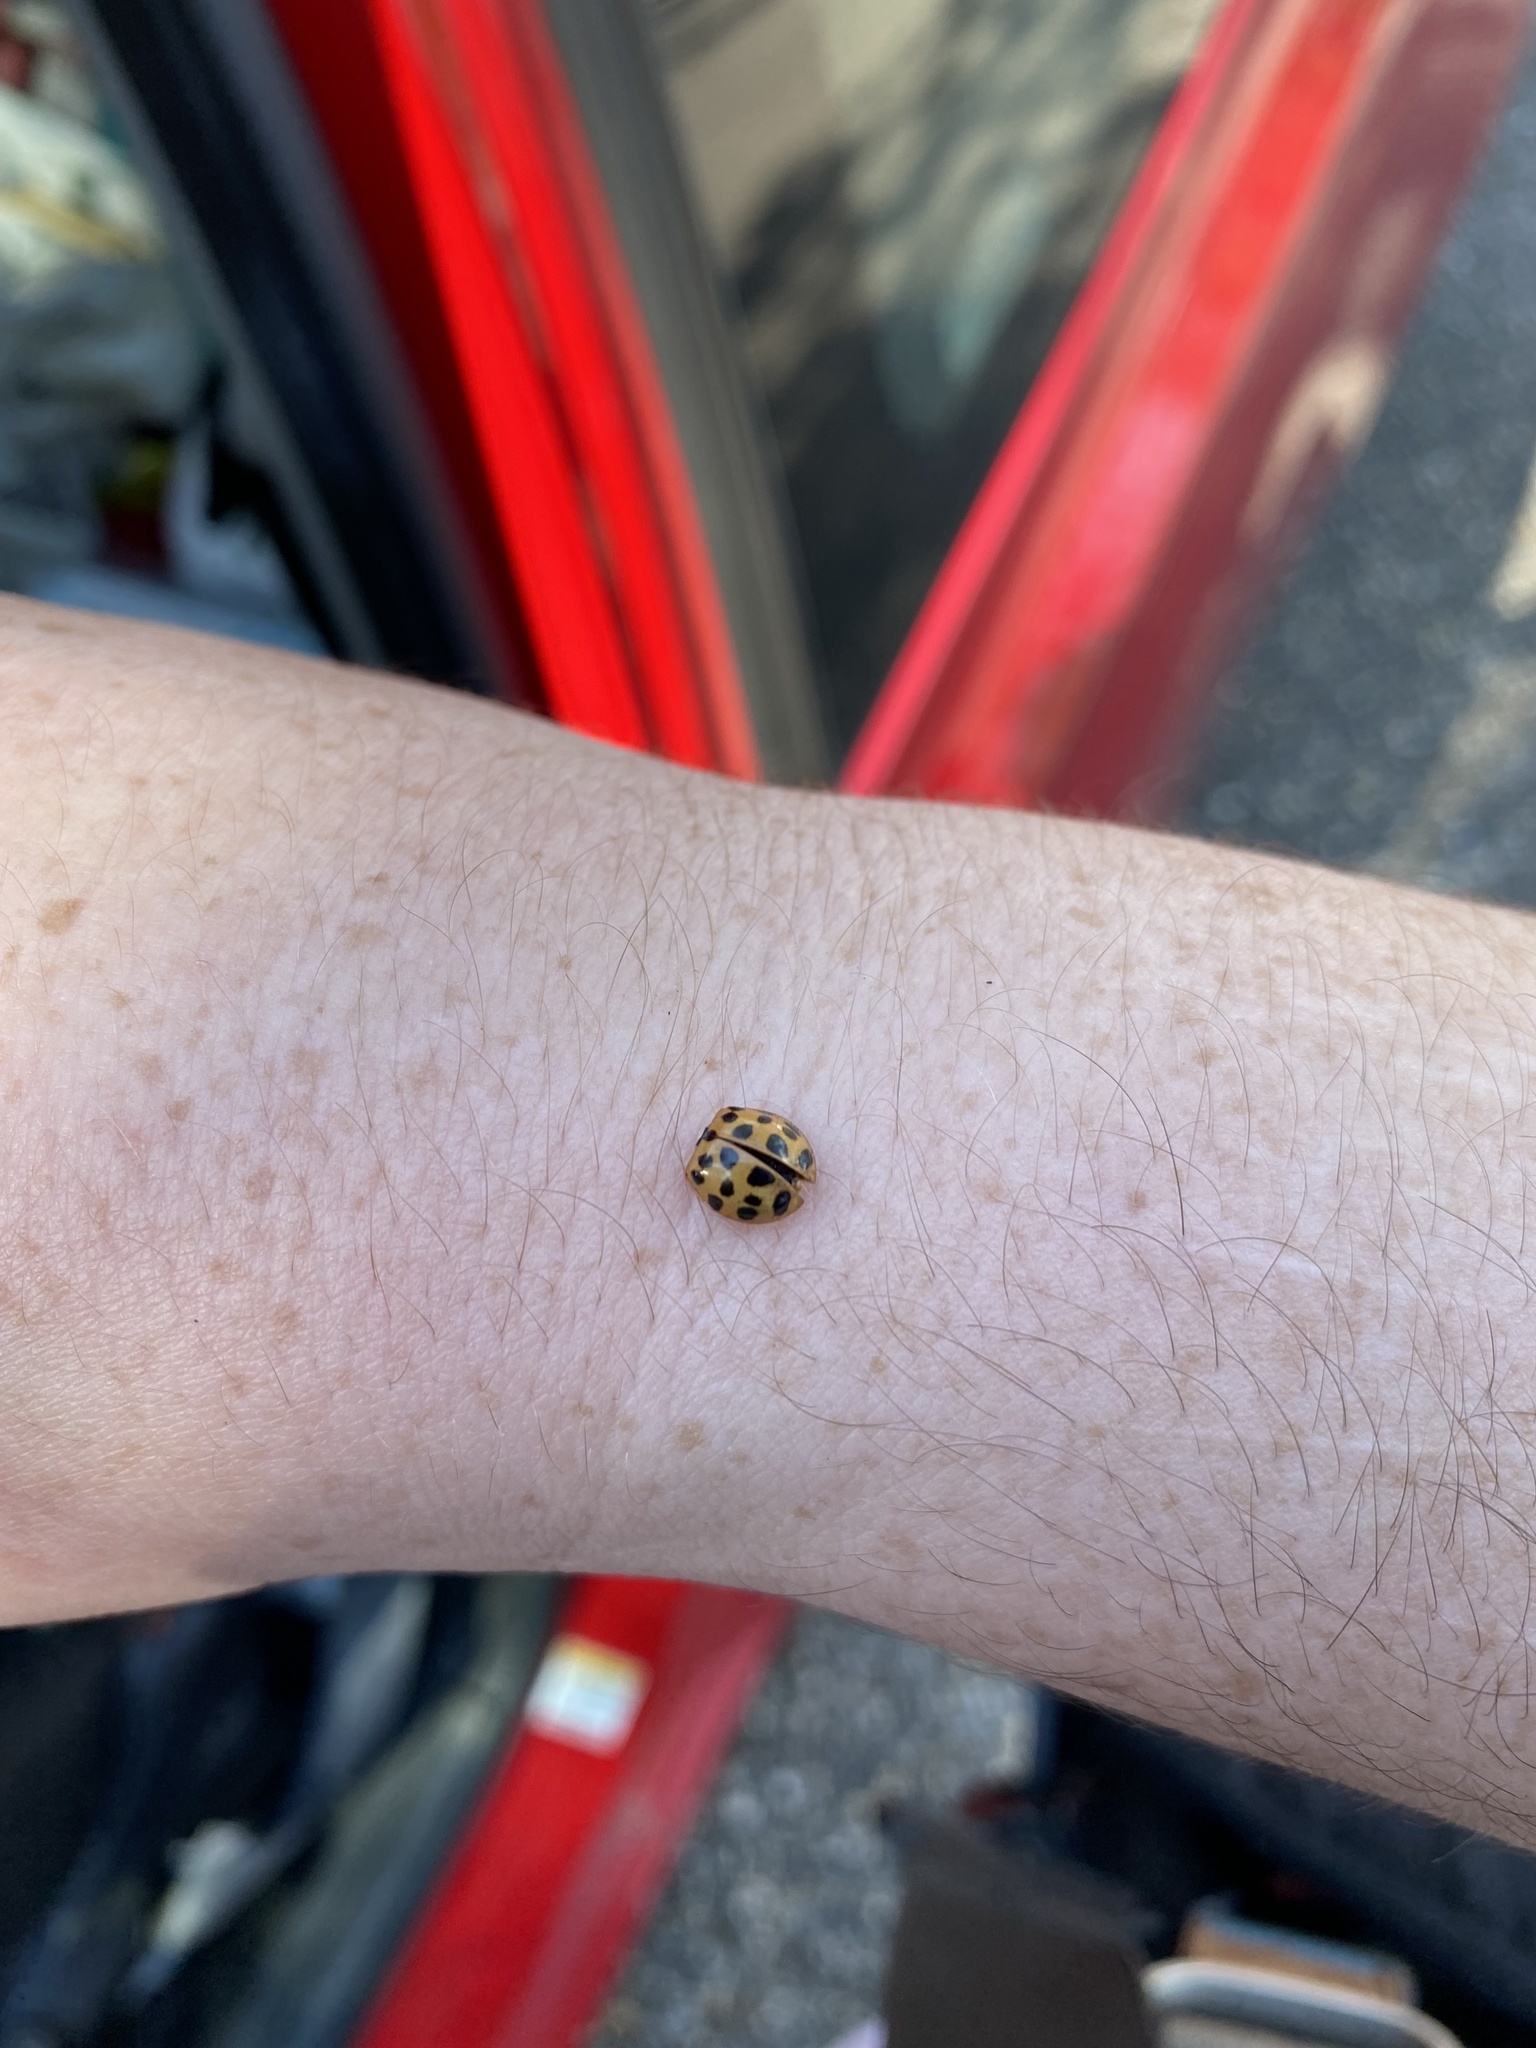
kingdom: Animalia
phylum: Arthropoda
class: Insecta
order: Coleoptera
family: Coccinellidae
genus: Harmonia
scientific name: Harmonia axyridis
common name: Harlequin ladybird
